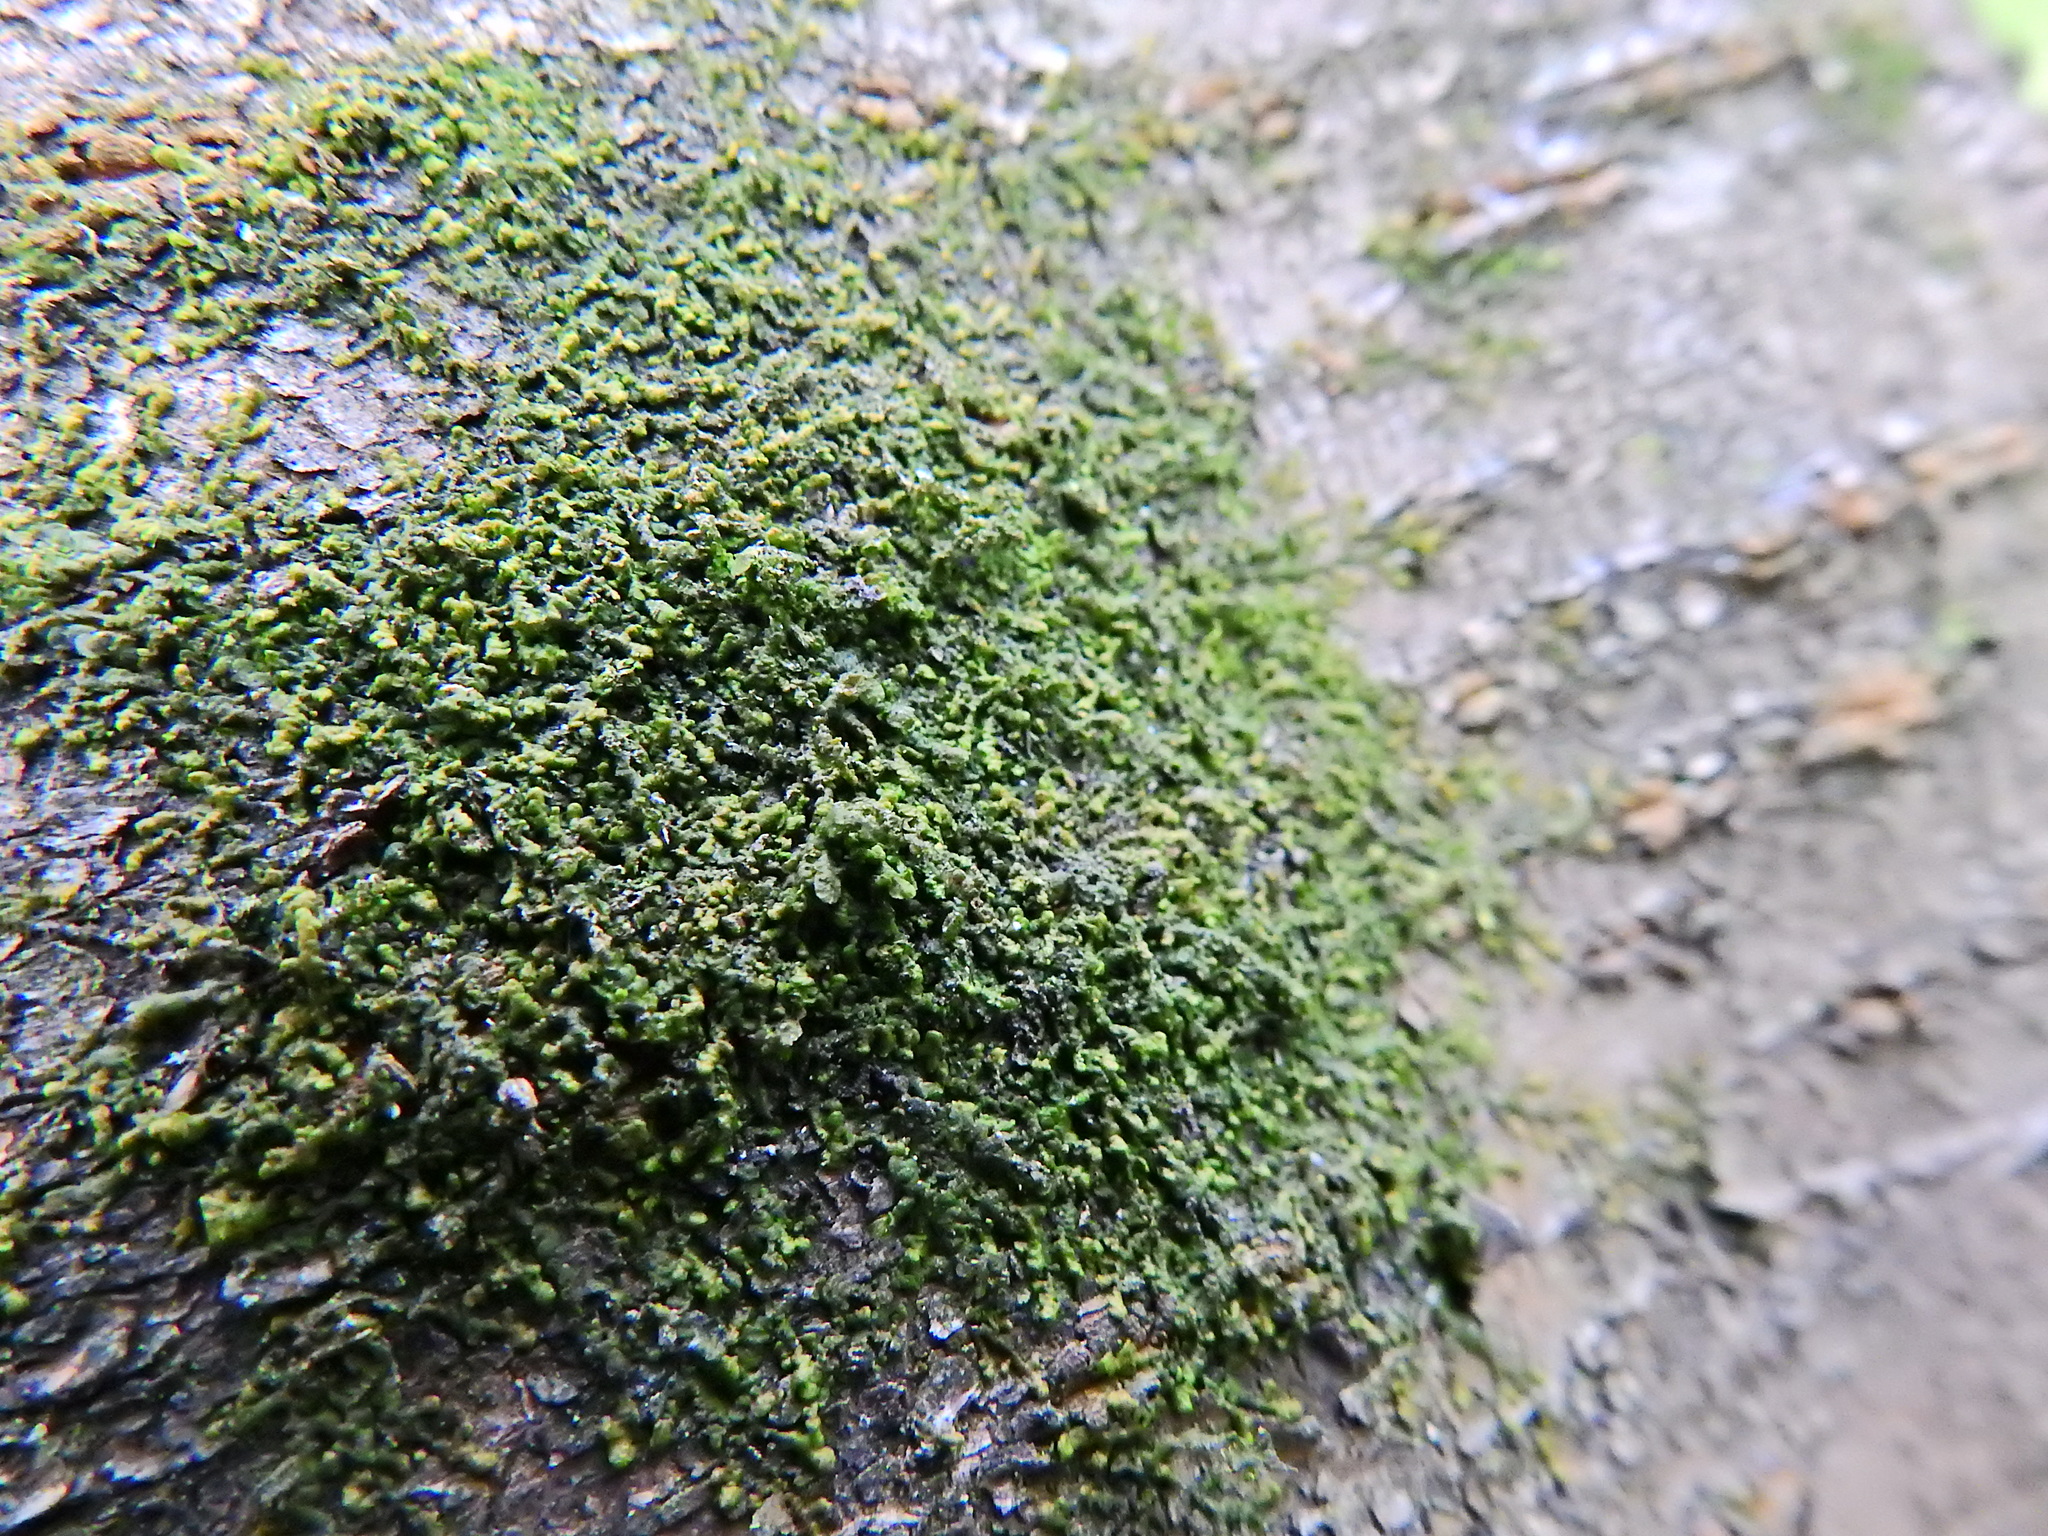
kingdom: Plantae
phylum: Marchantiophyta
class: Jungermanniopsida
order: Porellales
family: Frullaniaceae
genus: Frullania
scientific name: Frullania dilatata
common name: Dilated scalewort
